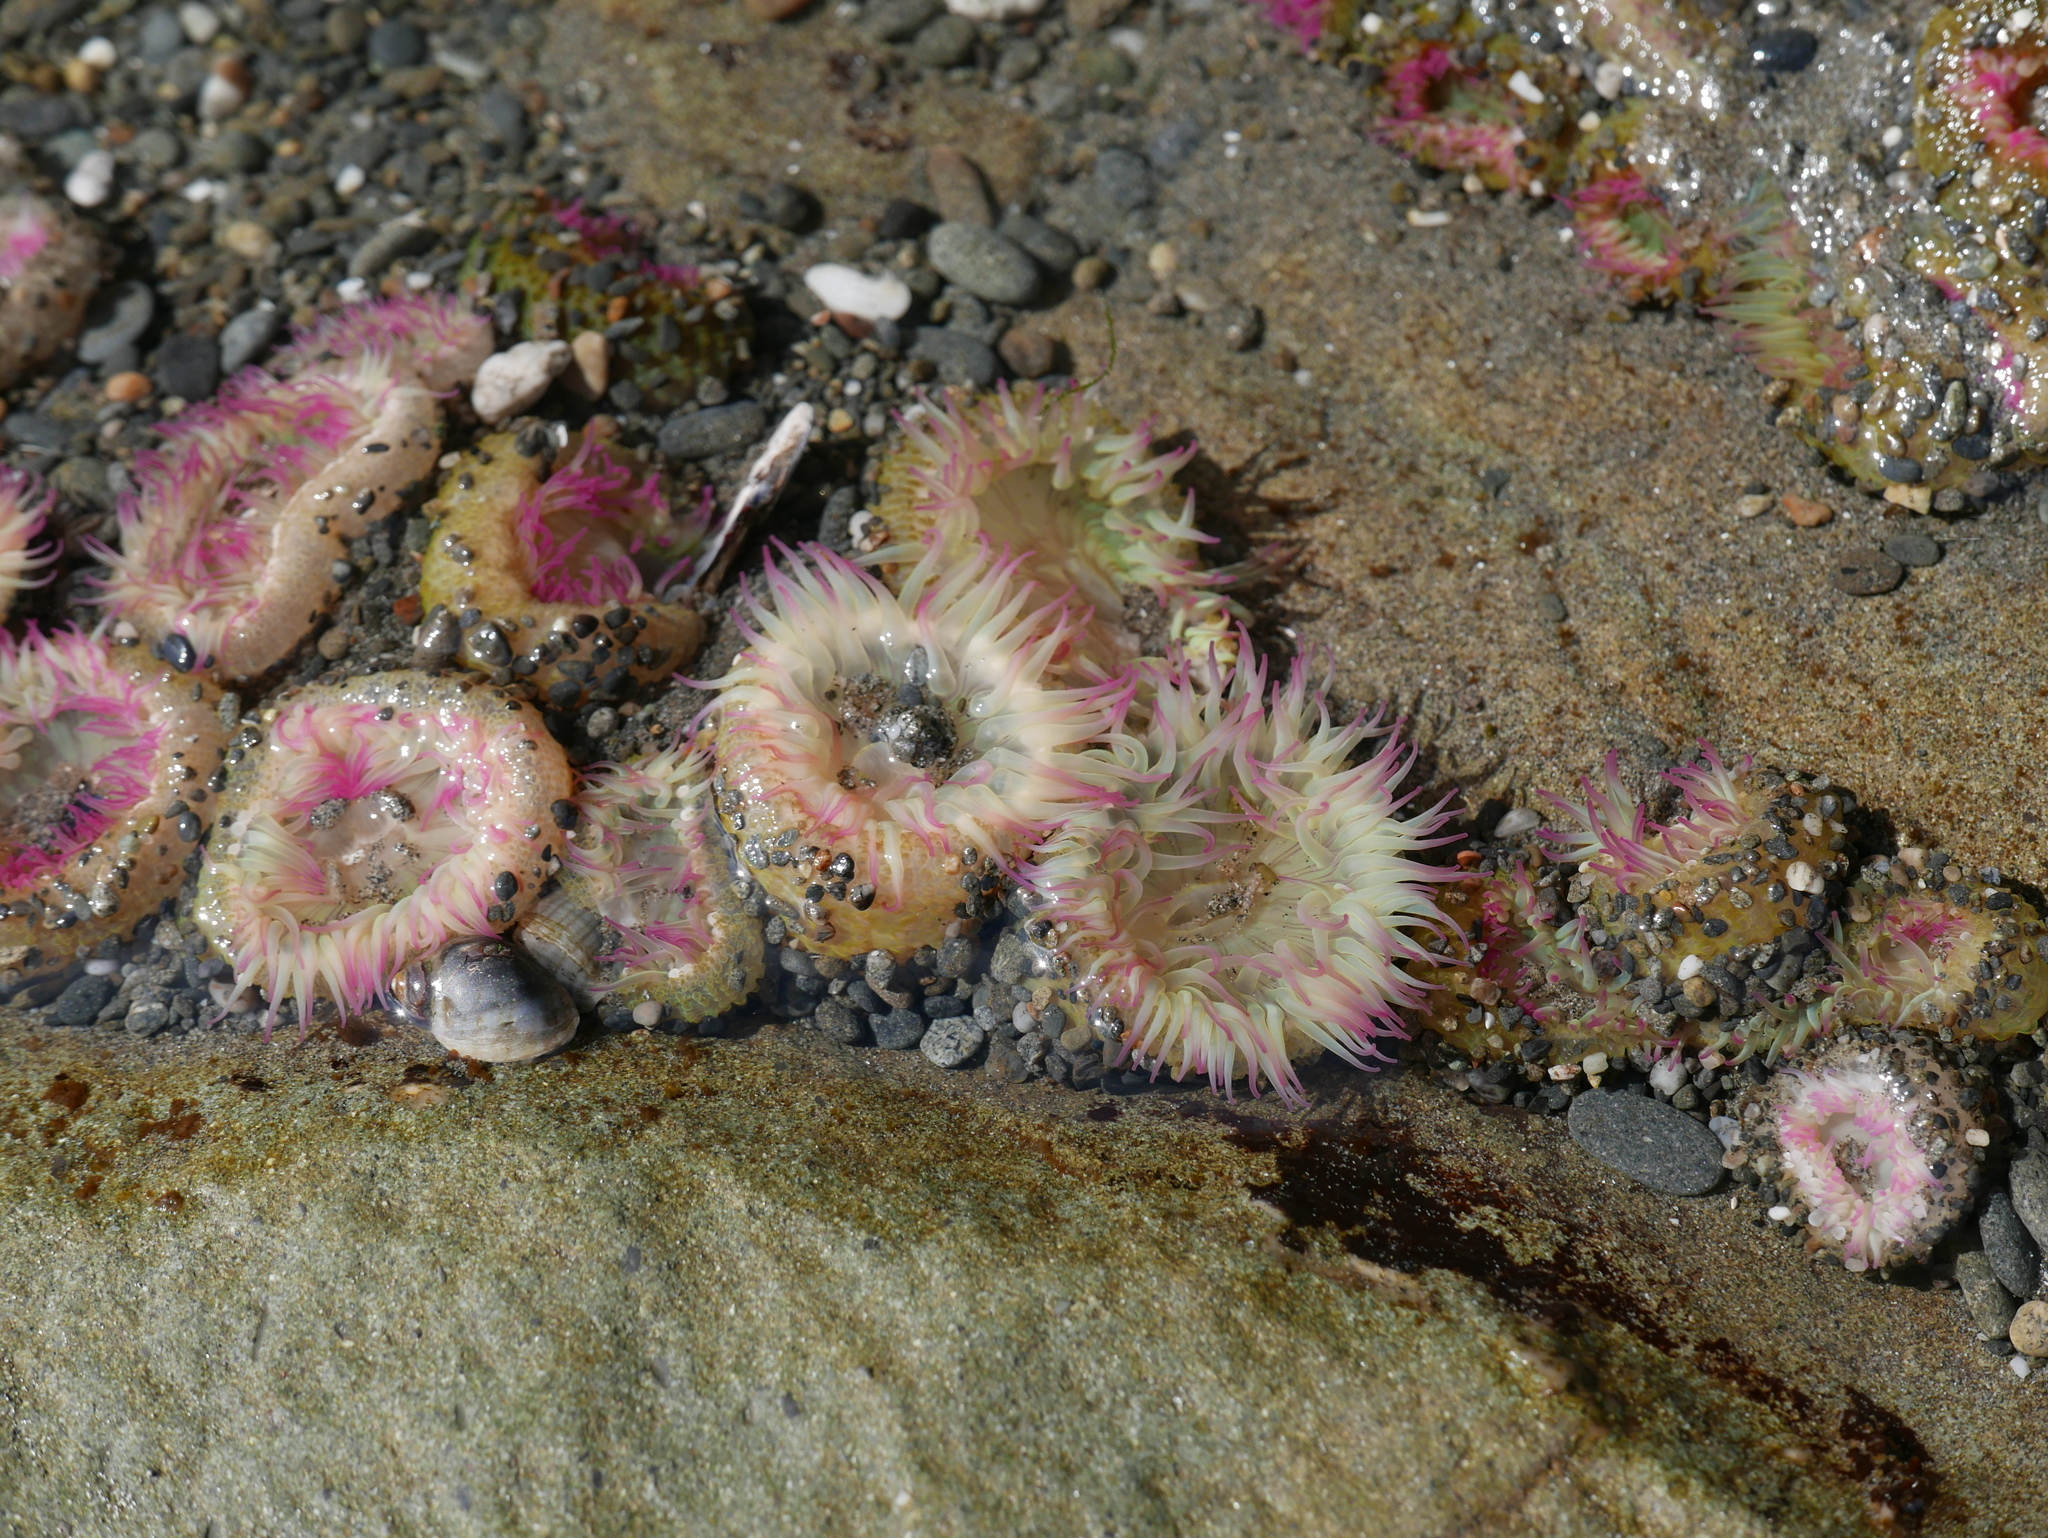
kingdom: Animalia
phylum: Cnidaria
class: Anthozoa
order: Actiniaria
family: Actiniidae
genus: Anthopleura
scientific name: Anthopleura elegantissima
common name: Clonal anemone
